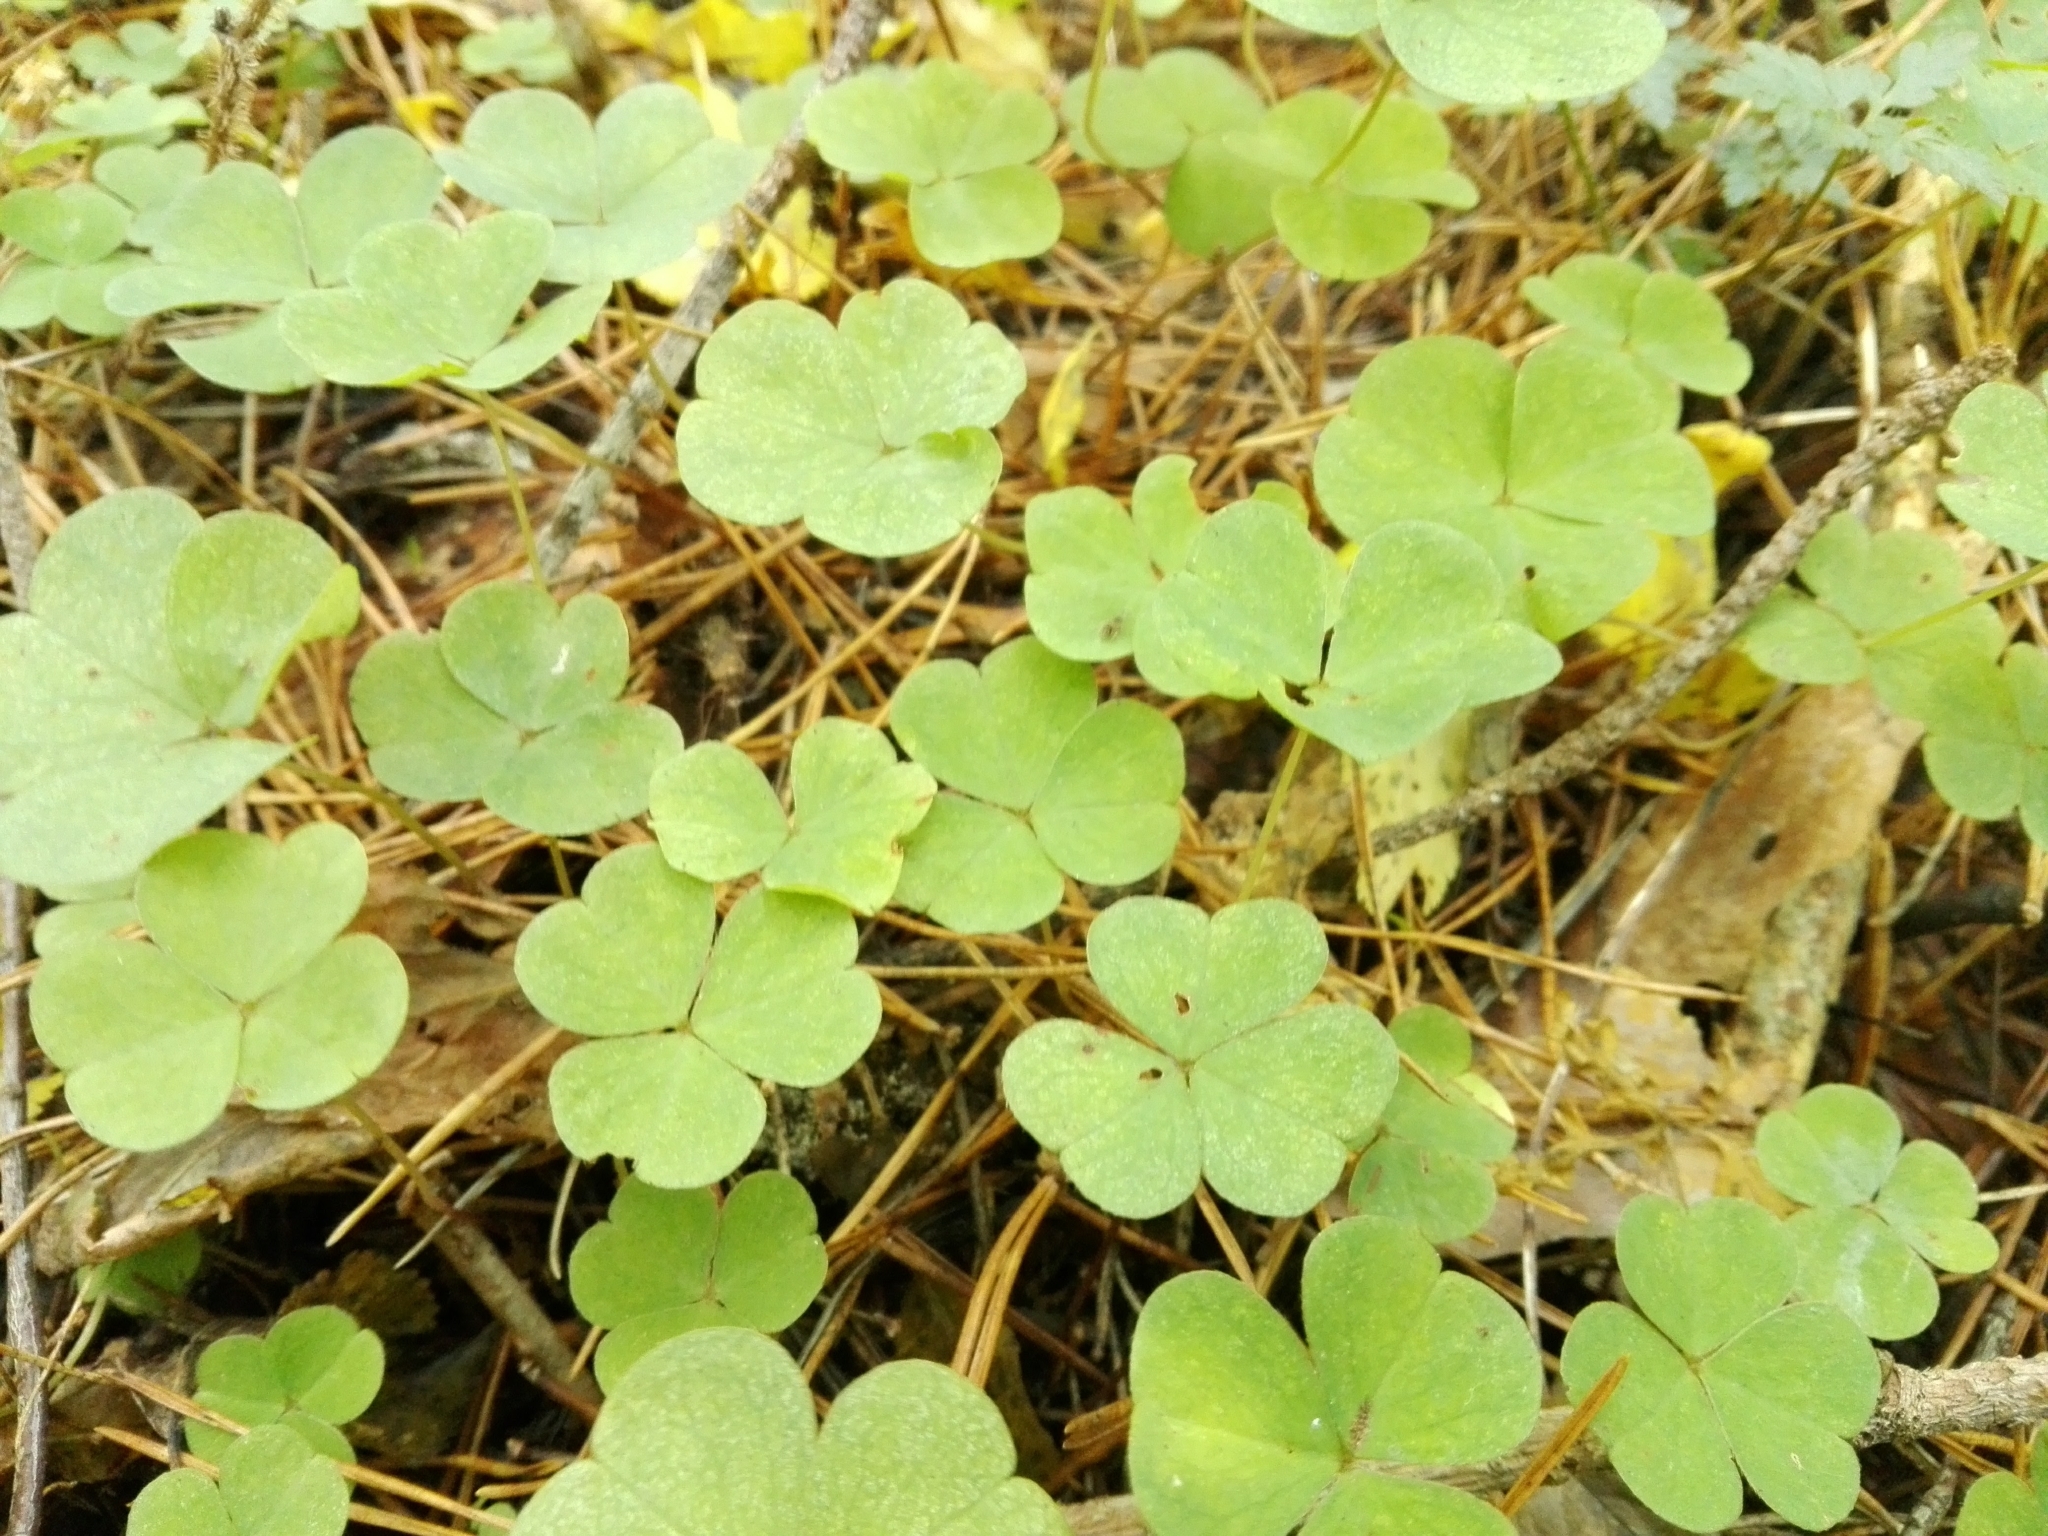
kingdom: Plantae
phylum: Tracheophyta
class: Magnoliopsida
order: Oxalidales
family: Oxalidaceae
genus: Oxalis
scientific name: Oxalis acetosella
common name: Wood-sorrel
